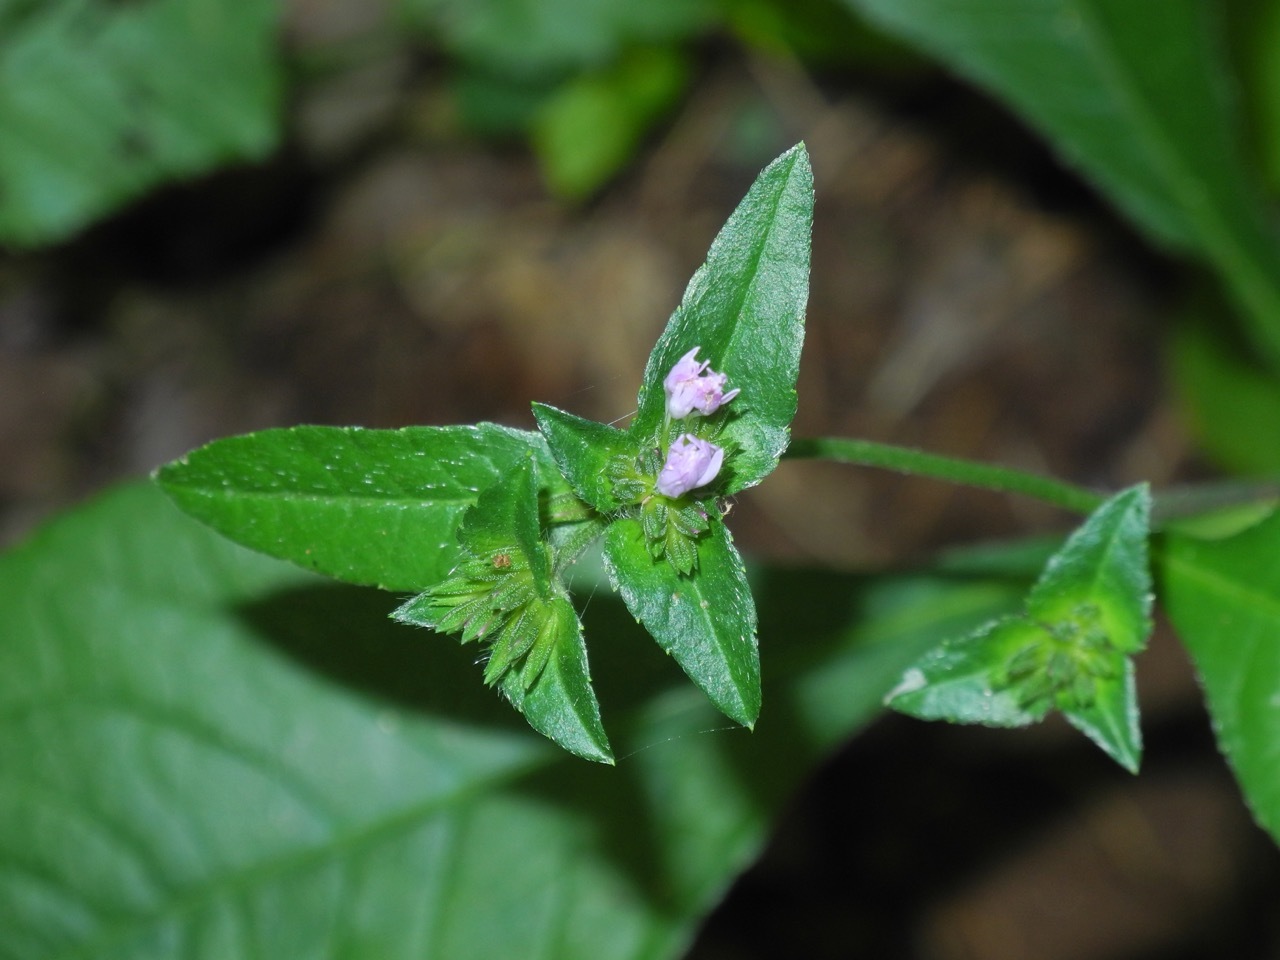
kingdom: Plantae
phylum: Tracheophyta
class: Magnoliopsida
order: Asterales
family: Asteraceae
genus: Elephantopus
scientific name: Elephantopus carolinianus
